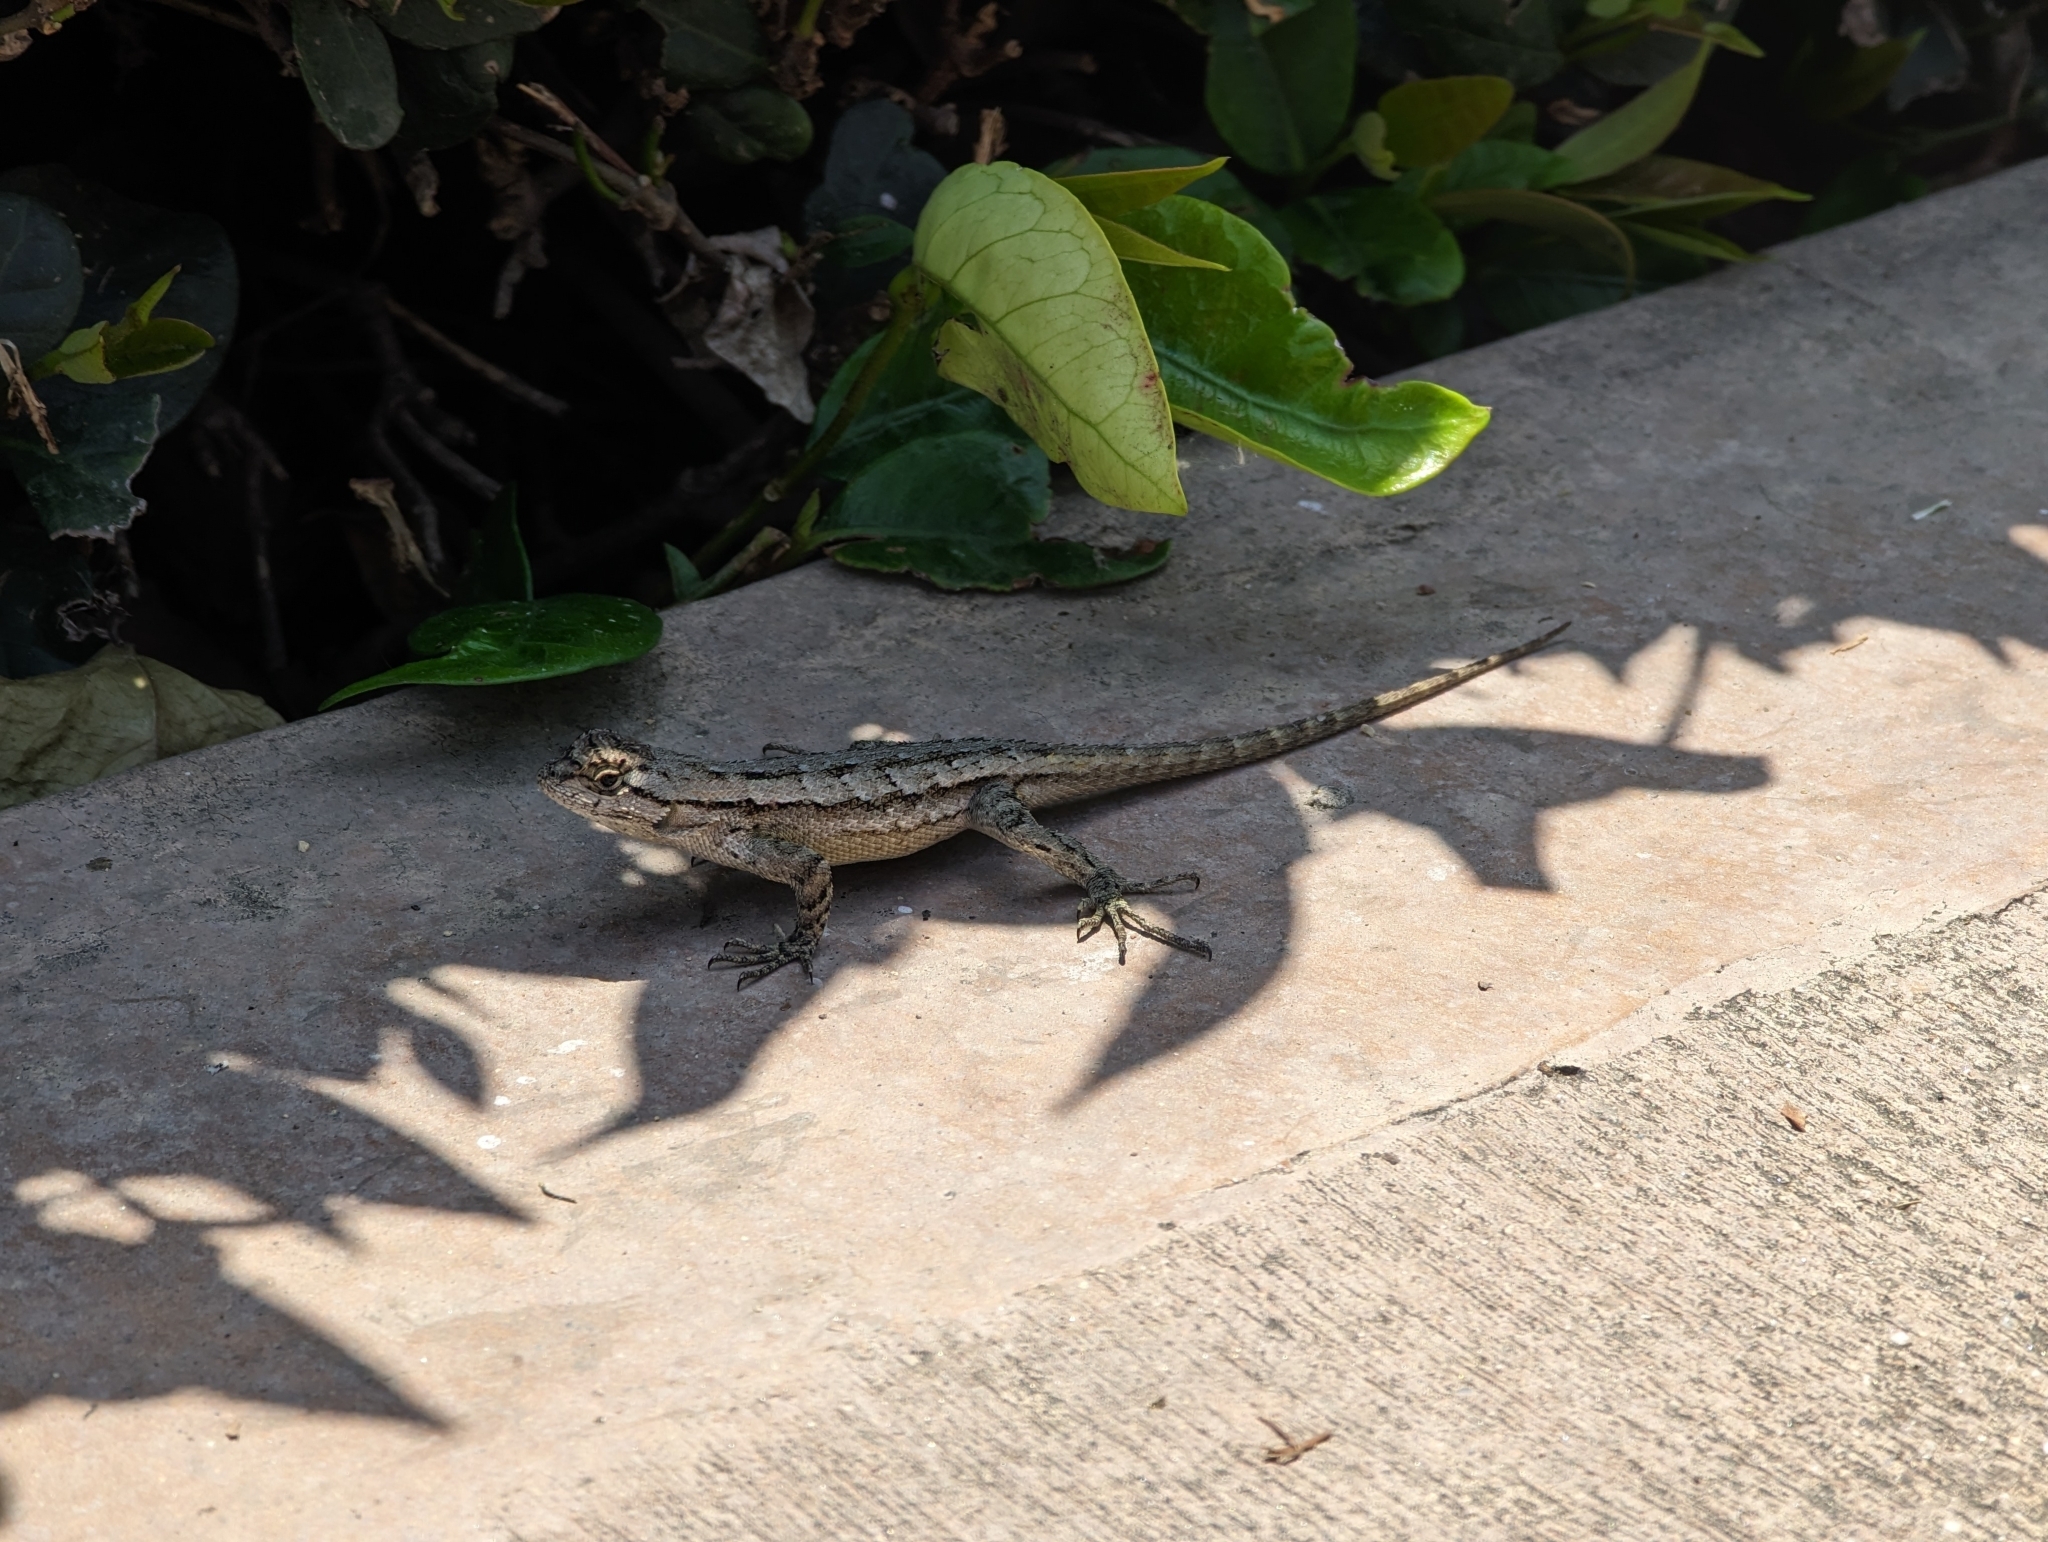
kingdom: Animalia
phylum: Chordata
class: Squamata
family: Phrynosomatidae
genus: Sceloporus
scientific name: Sceloporus occidentalis
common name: Western fence lizard
